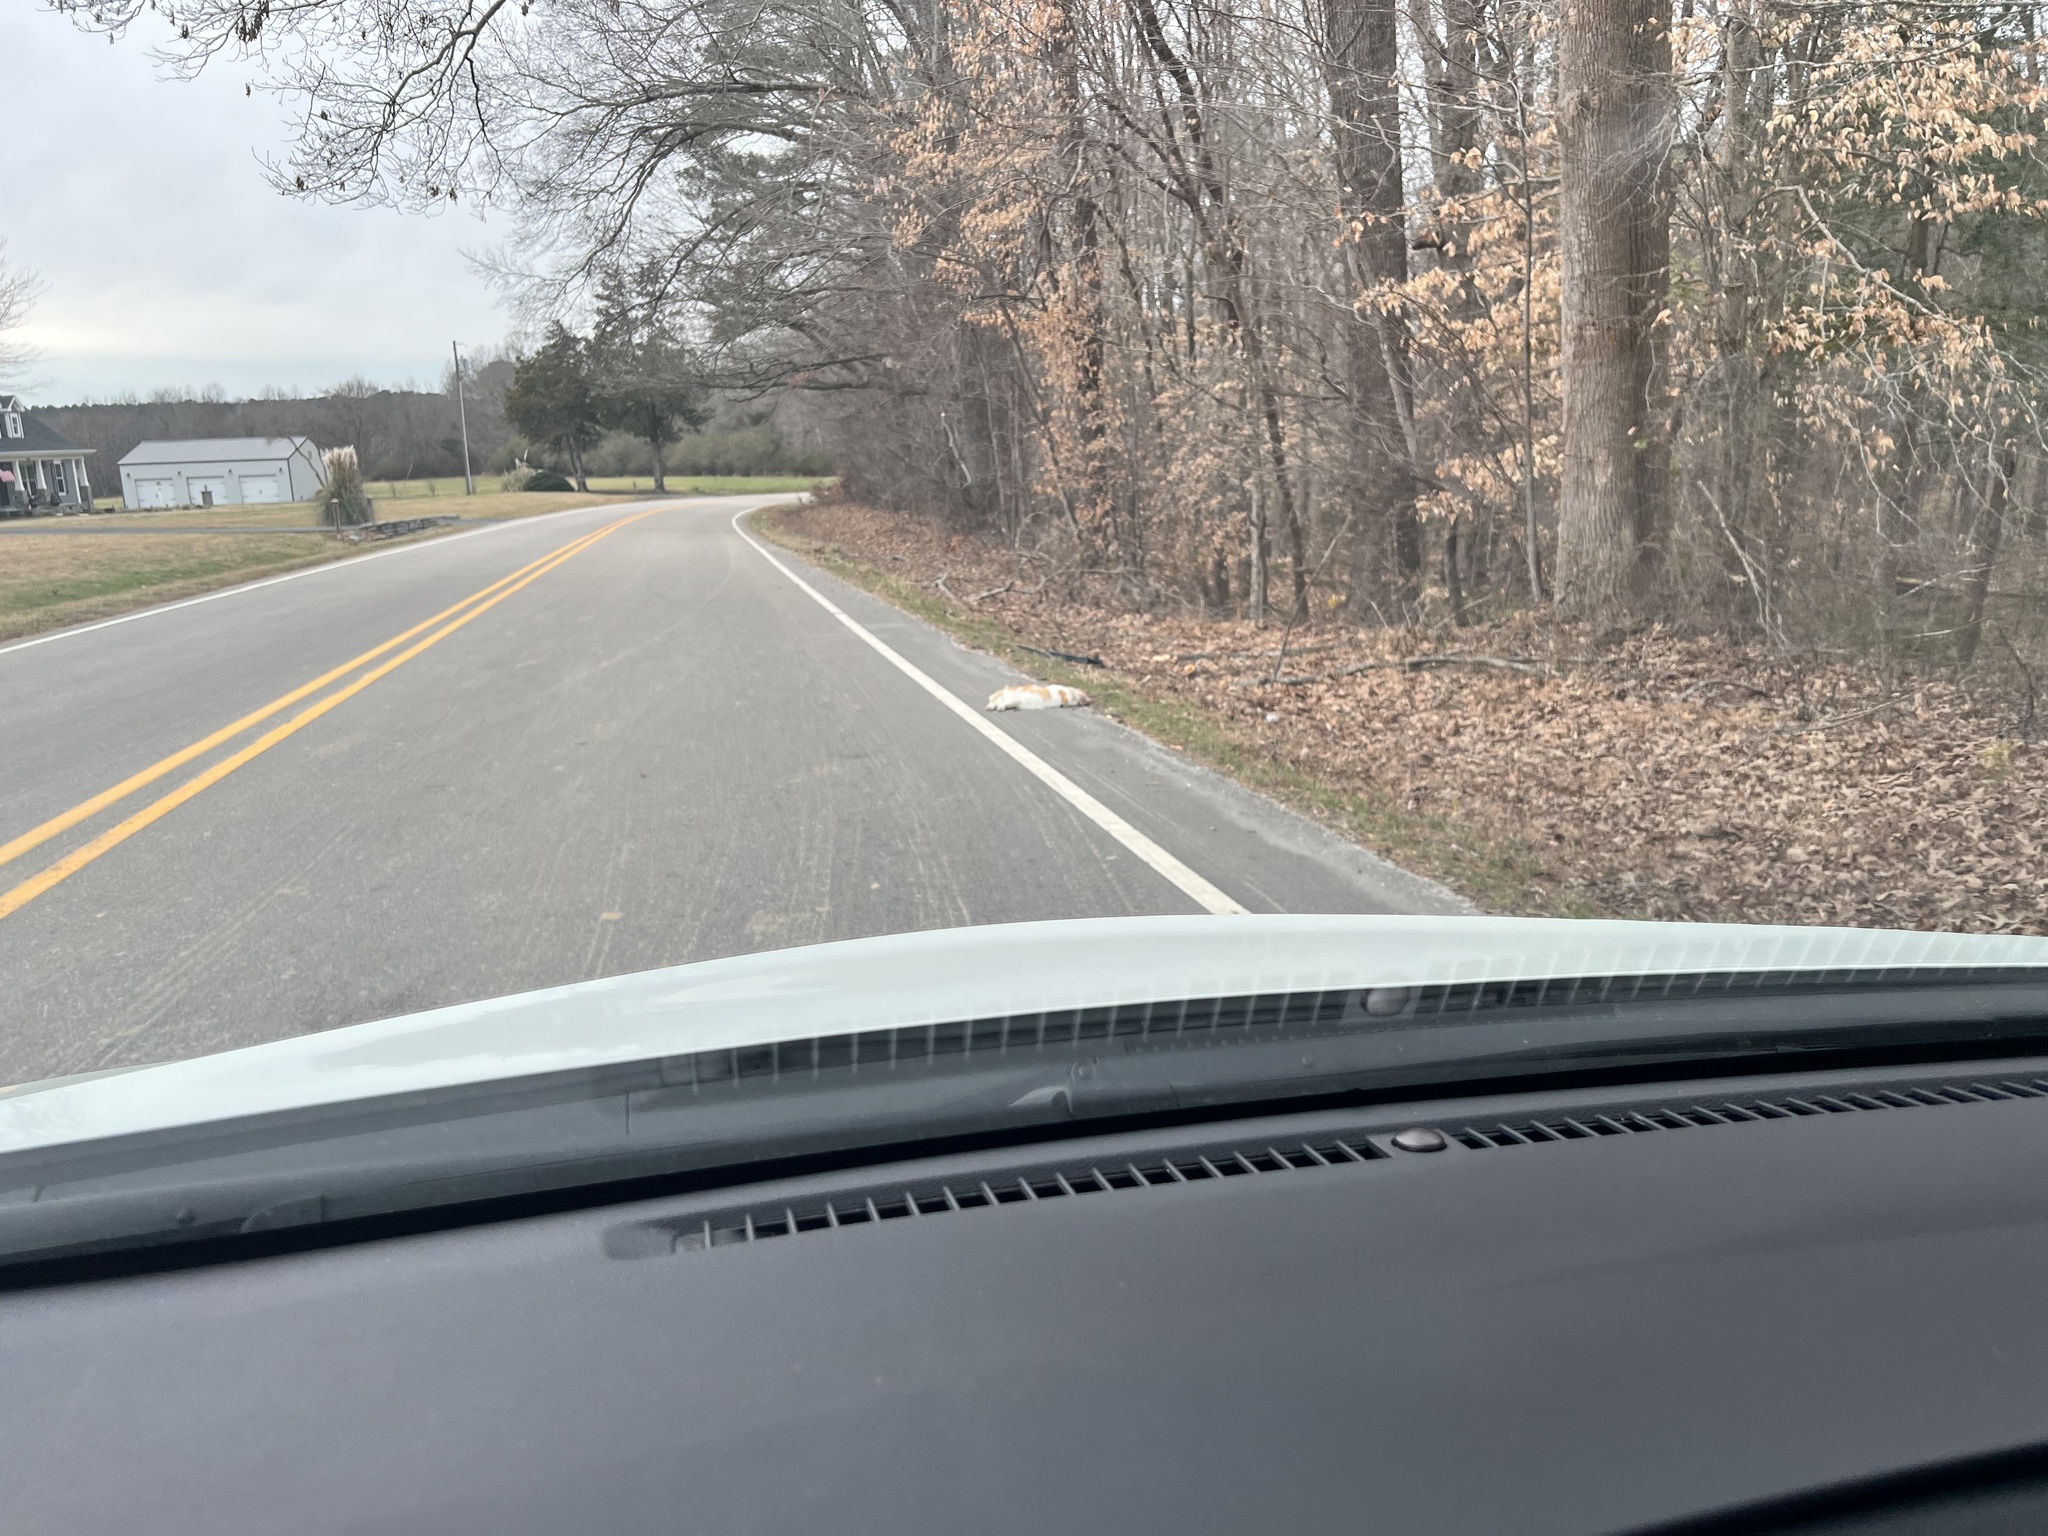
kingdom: Animalia
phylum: Chordata
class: Mammalia
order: Carnivora
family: Felidae
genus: Felis
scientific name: Felis catus
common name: Domestic cat
